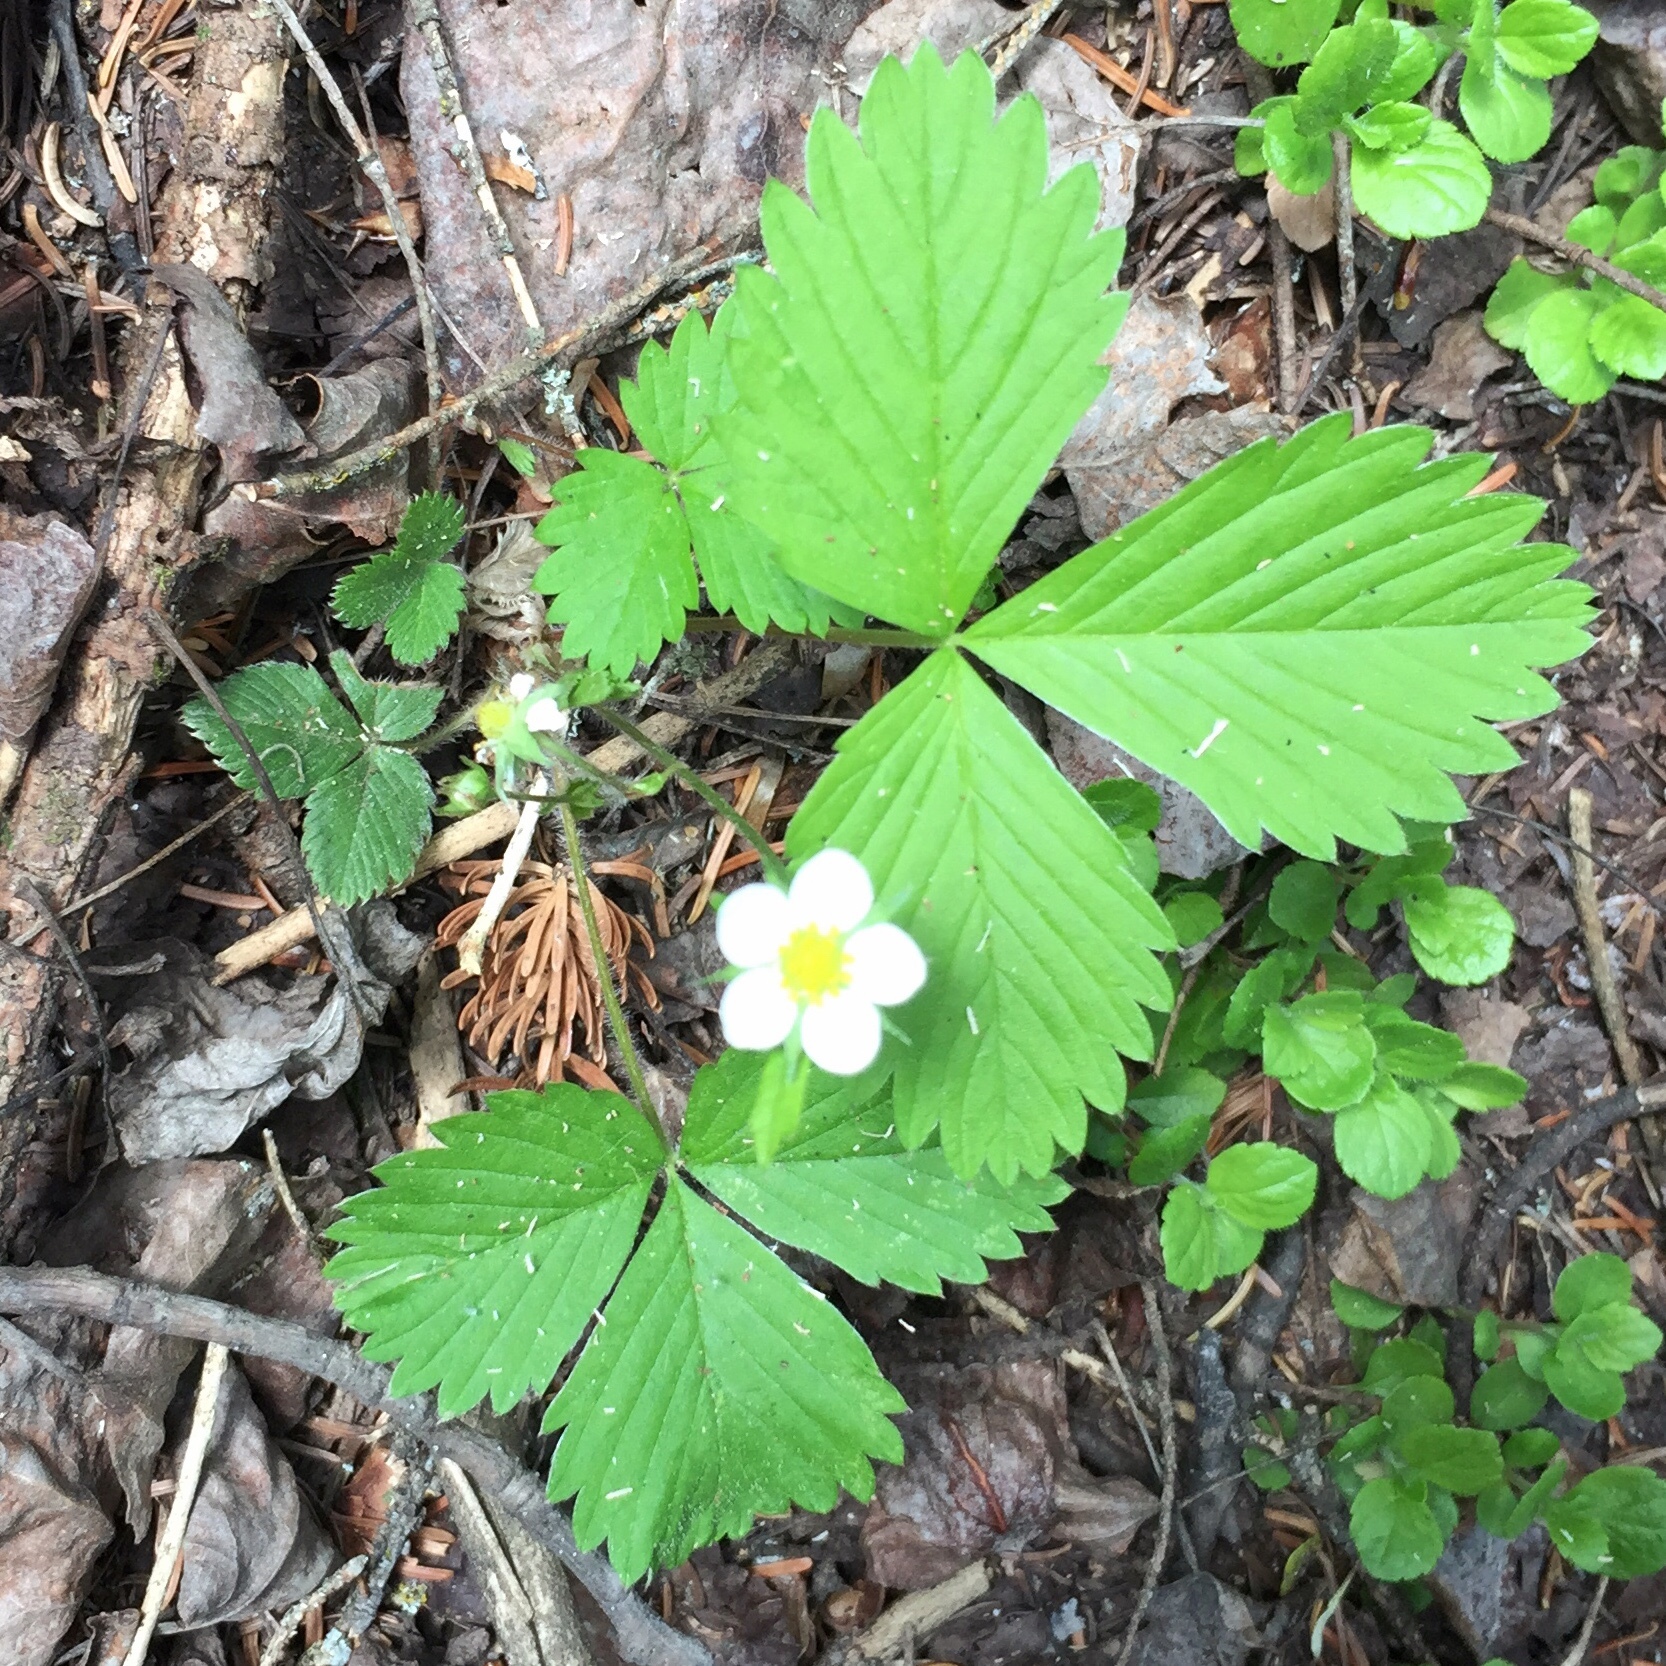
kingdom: Plantae
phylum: Tracheophyta
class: Magnoliopsida
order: Rosales
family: Rosaceae
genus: Fragaria
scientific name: Fragaria virginiana
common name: Thickleaved wild strawberry
